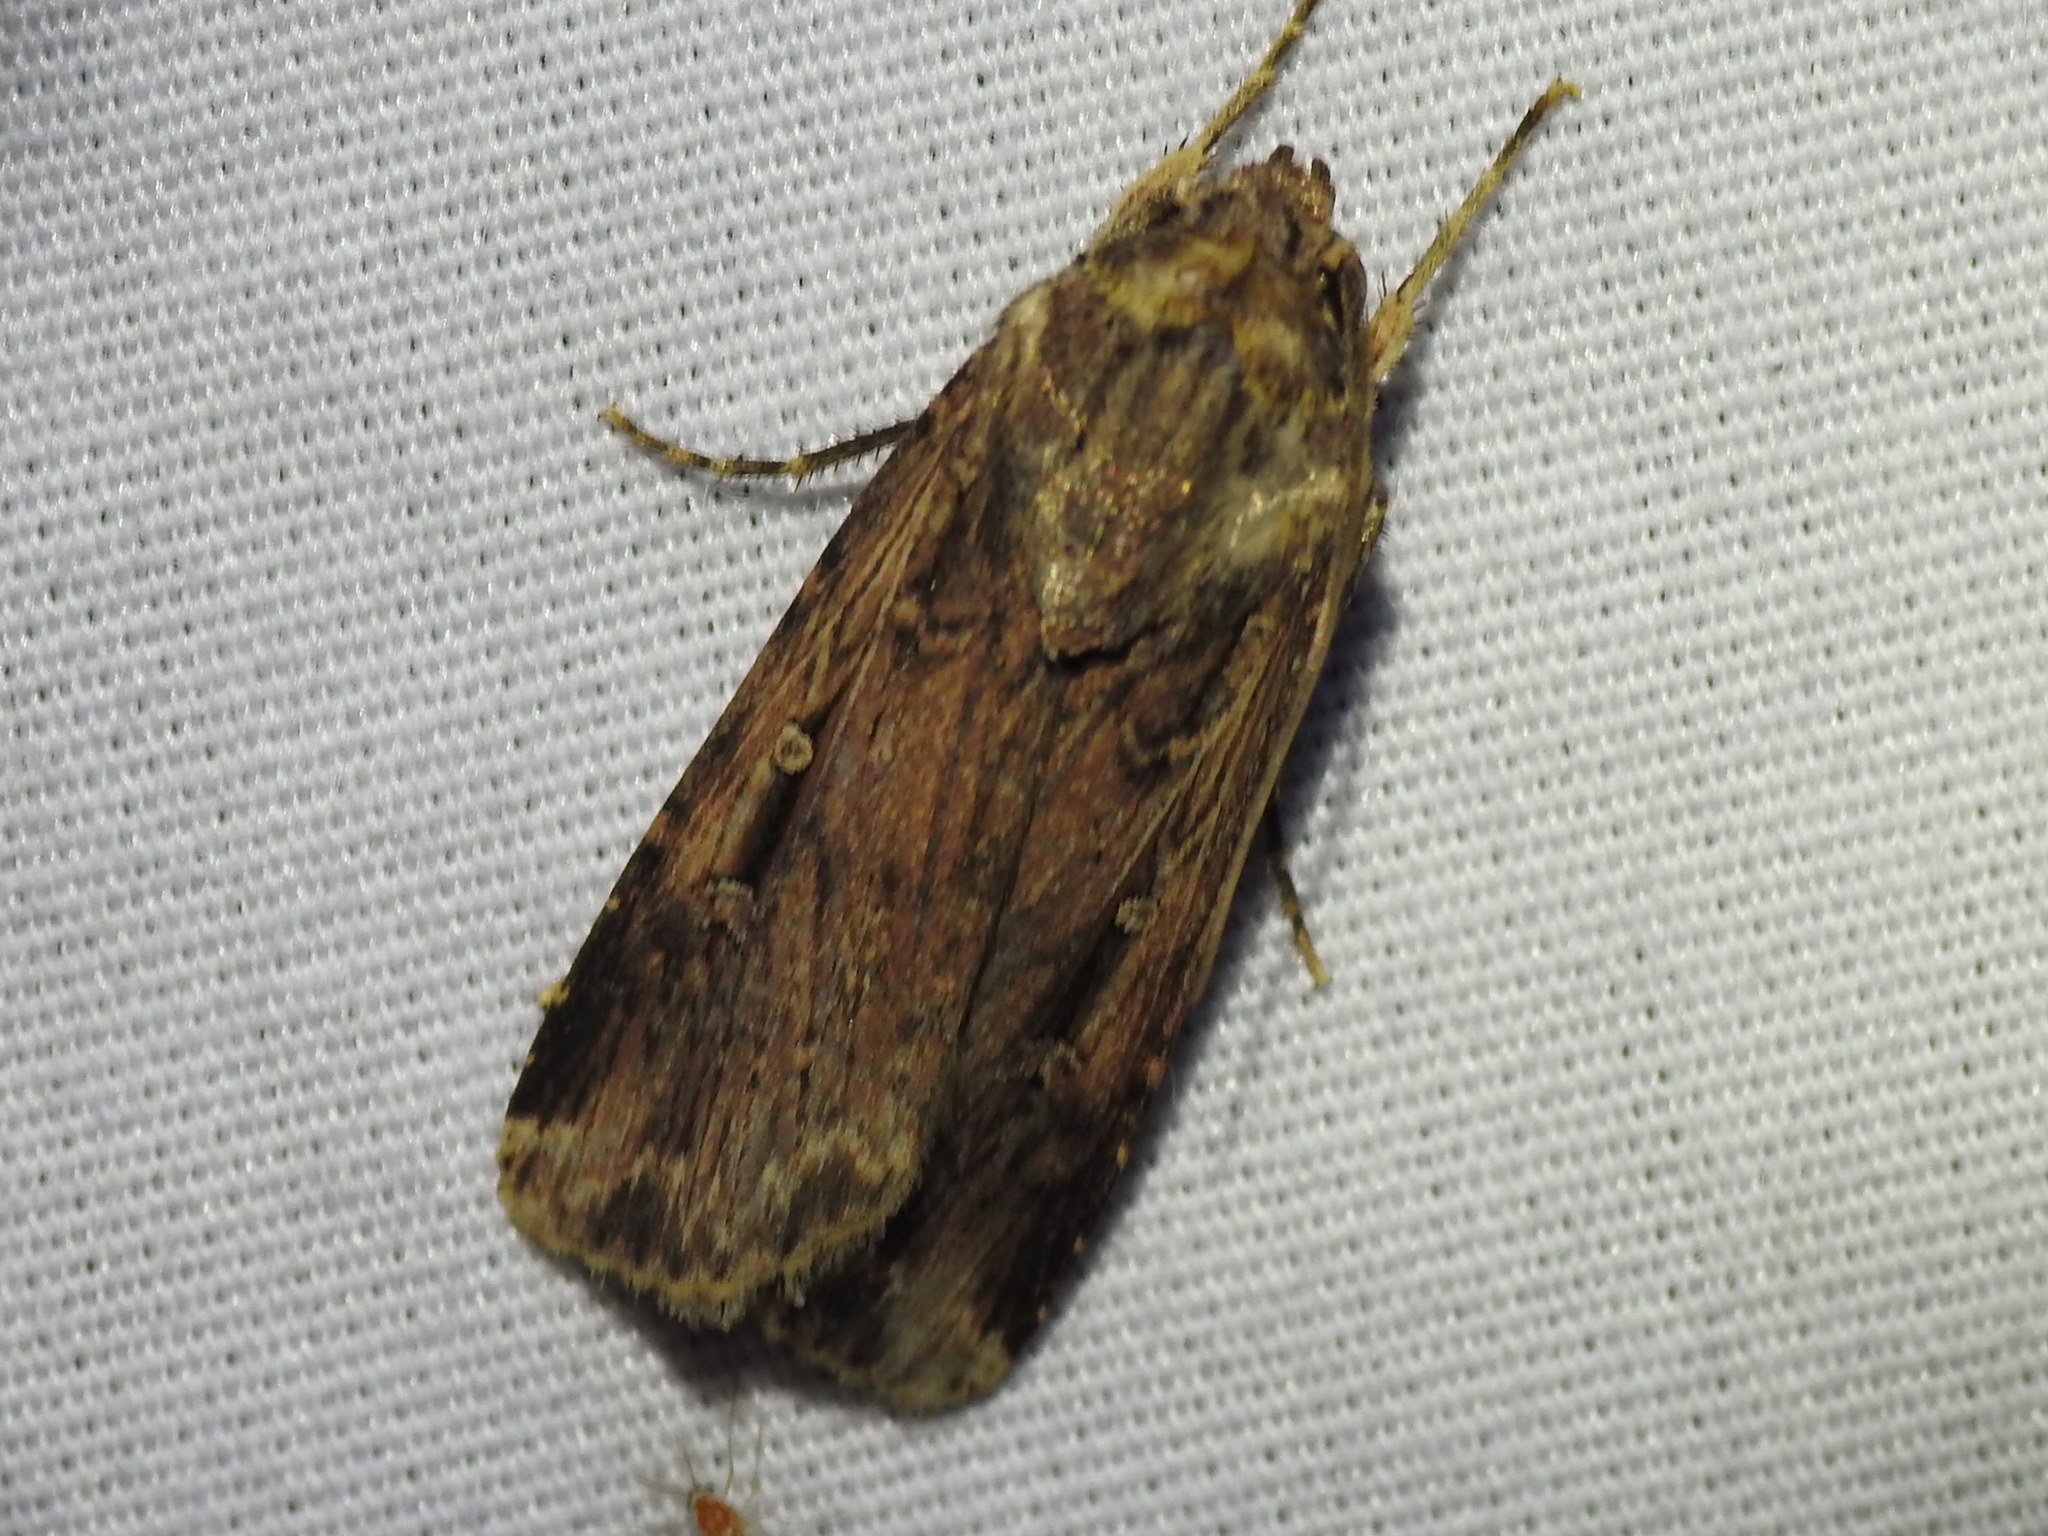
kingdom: Animalia
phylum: Arthropoda
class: Insecta
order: Lepidoptera
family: Noctuidae
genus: Feltia
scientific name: Feltia subterranea
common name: Granulate cutworm
